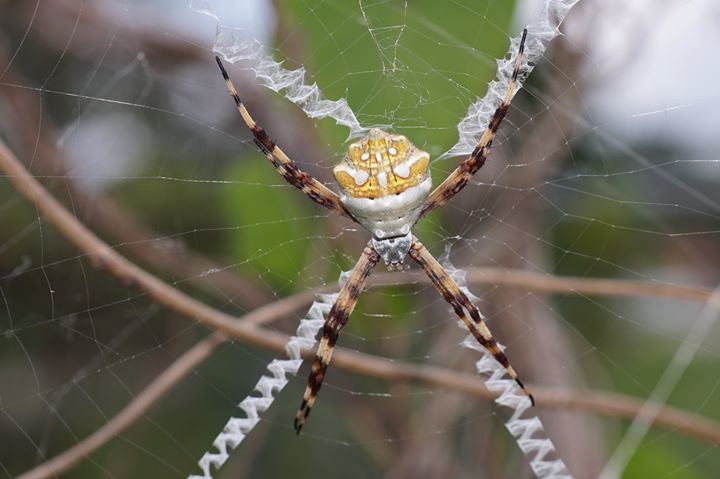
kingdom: Animalia
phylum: Arthropoda
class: Arachnida
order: Araneae
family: Araneidae
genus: Argiope
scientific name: Argiope argentata
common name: Orb weavers
